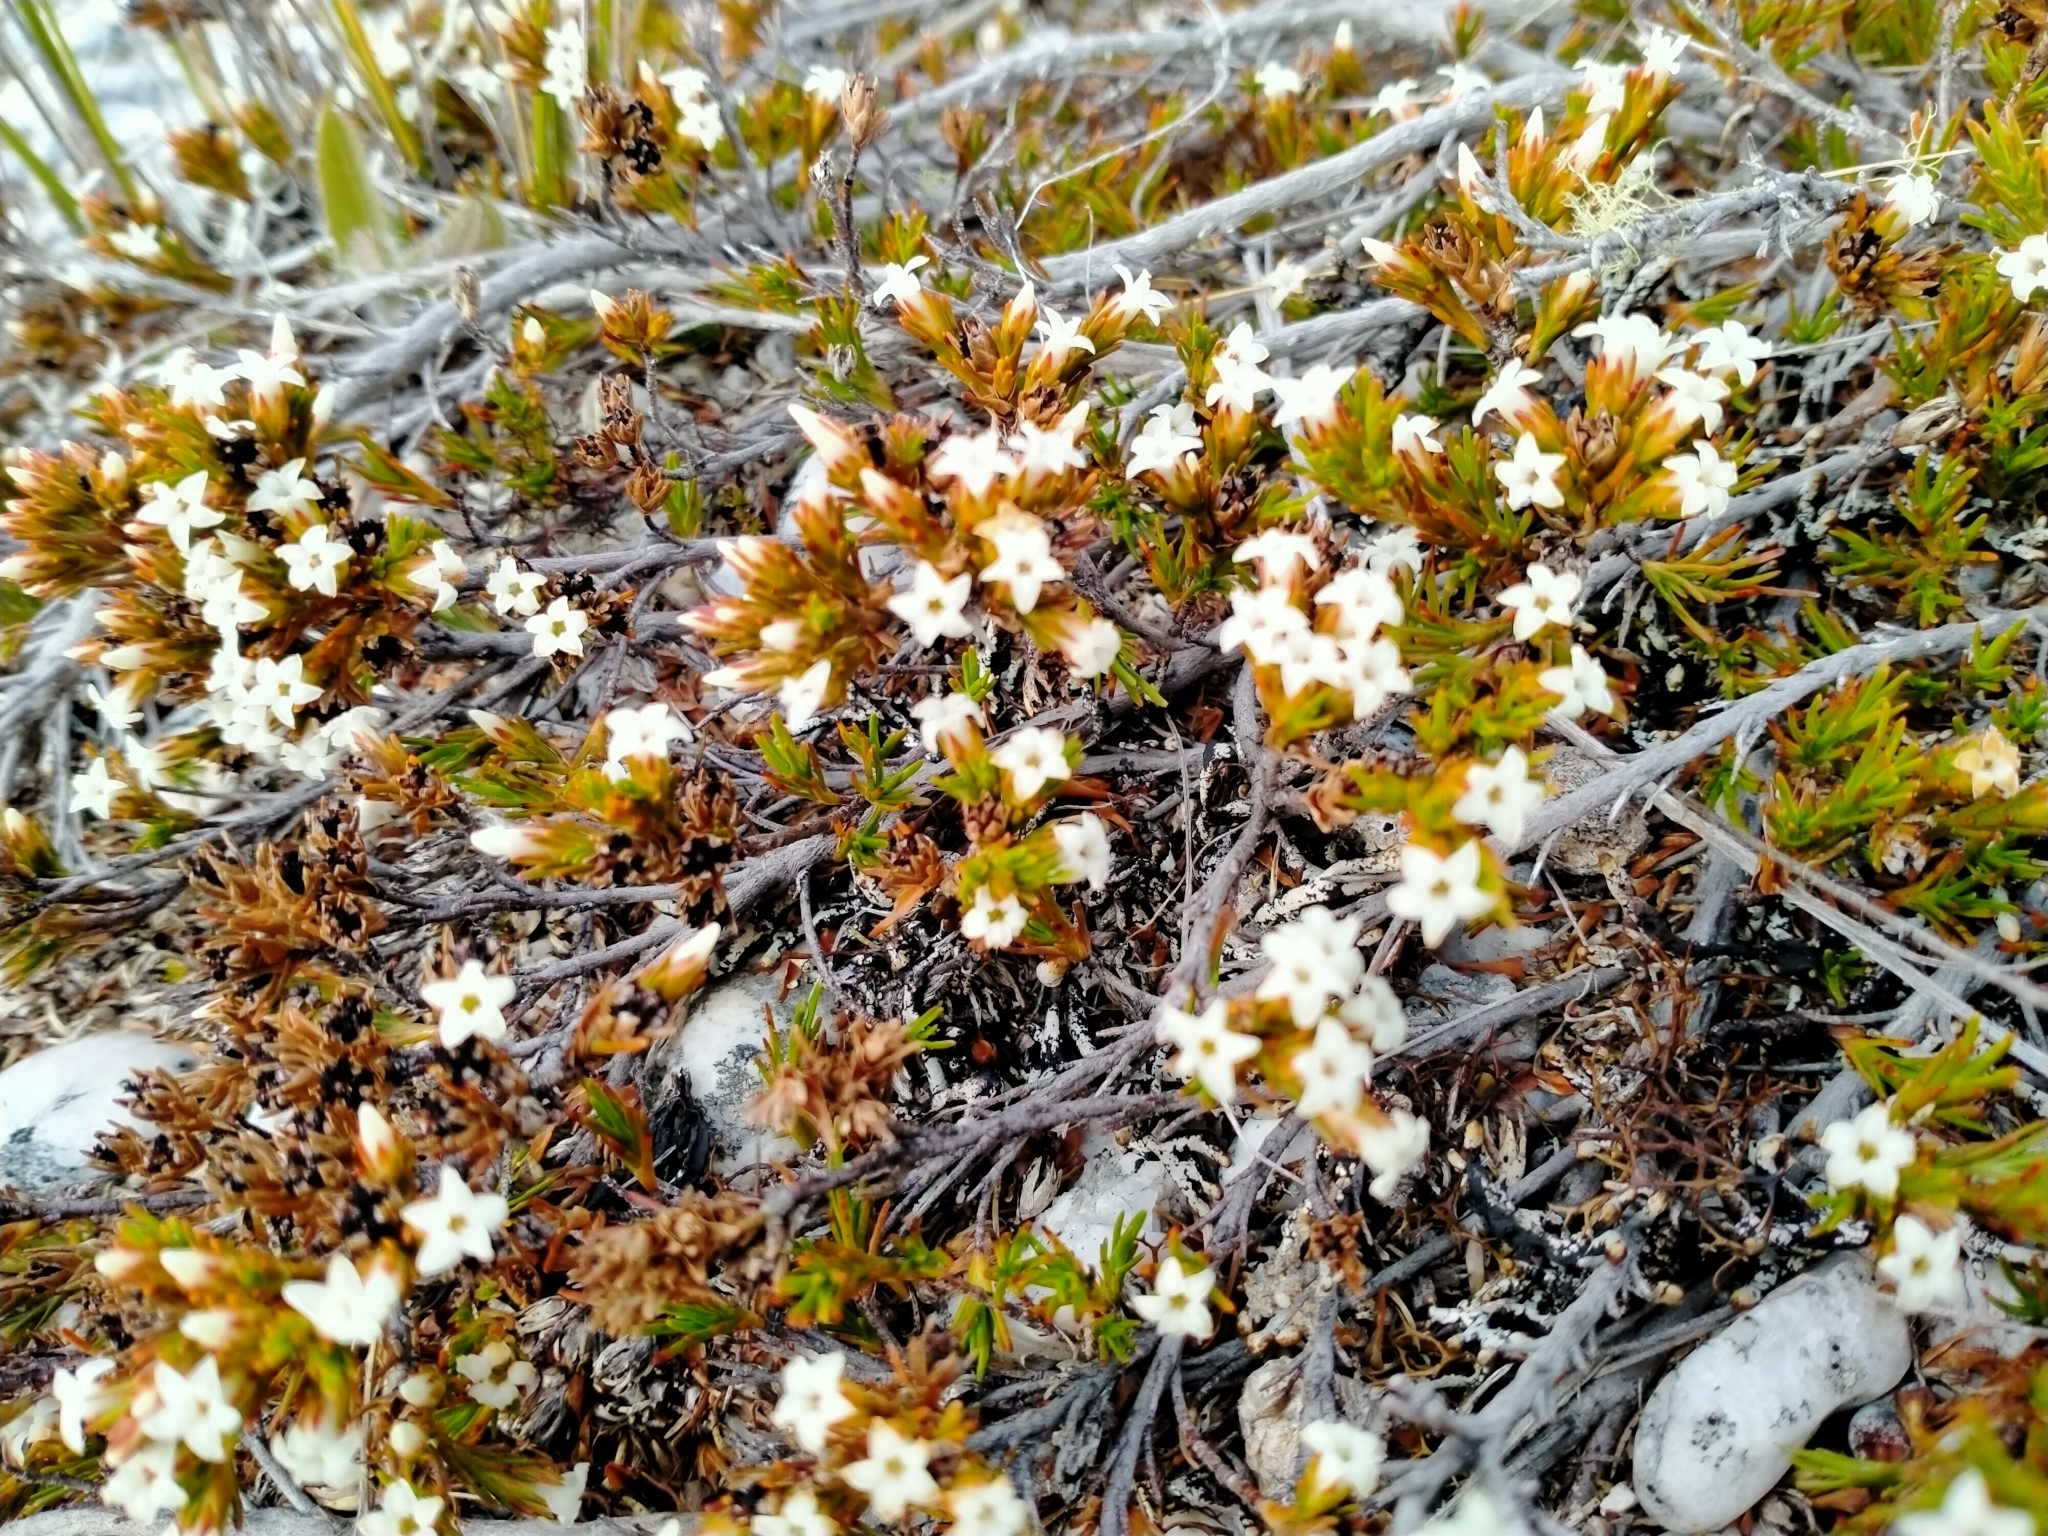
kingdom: Plantae
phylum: Tracheophyta
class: Magnoliopsida
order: Ericales
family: Ericaceae
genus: Dracophyllum
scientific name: Dracophyllum pronum
